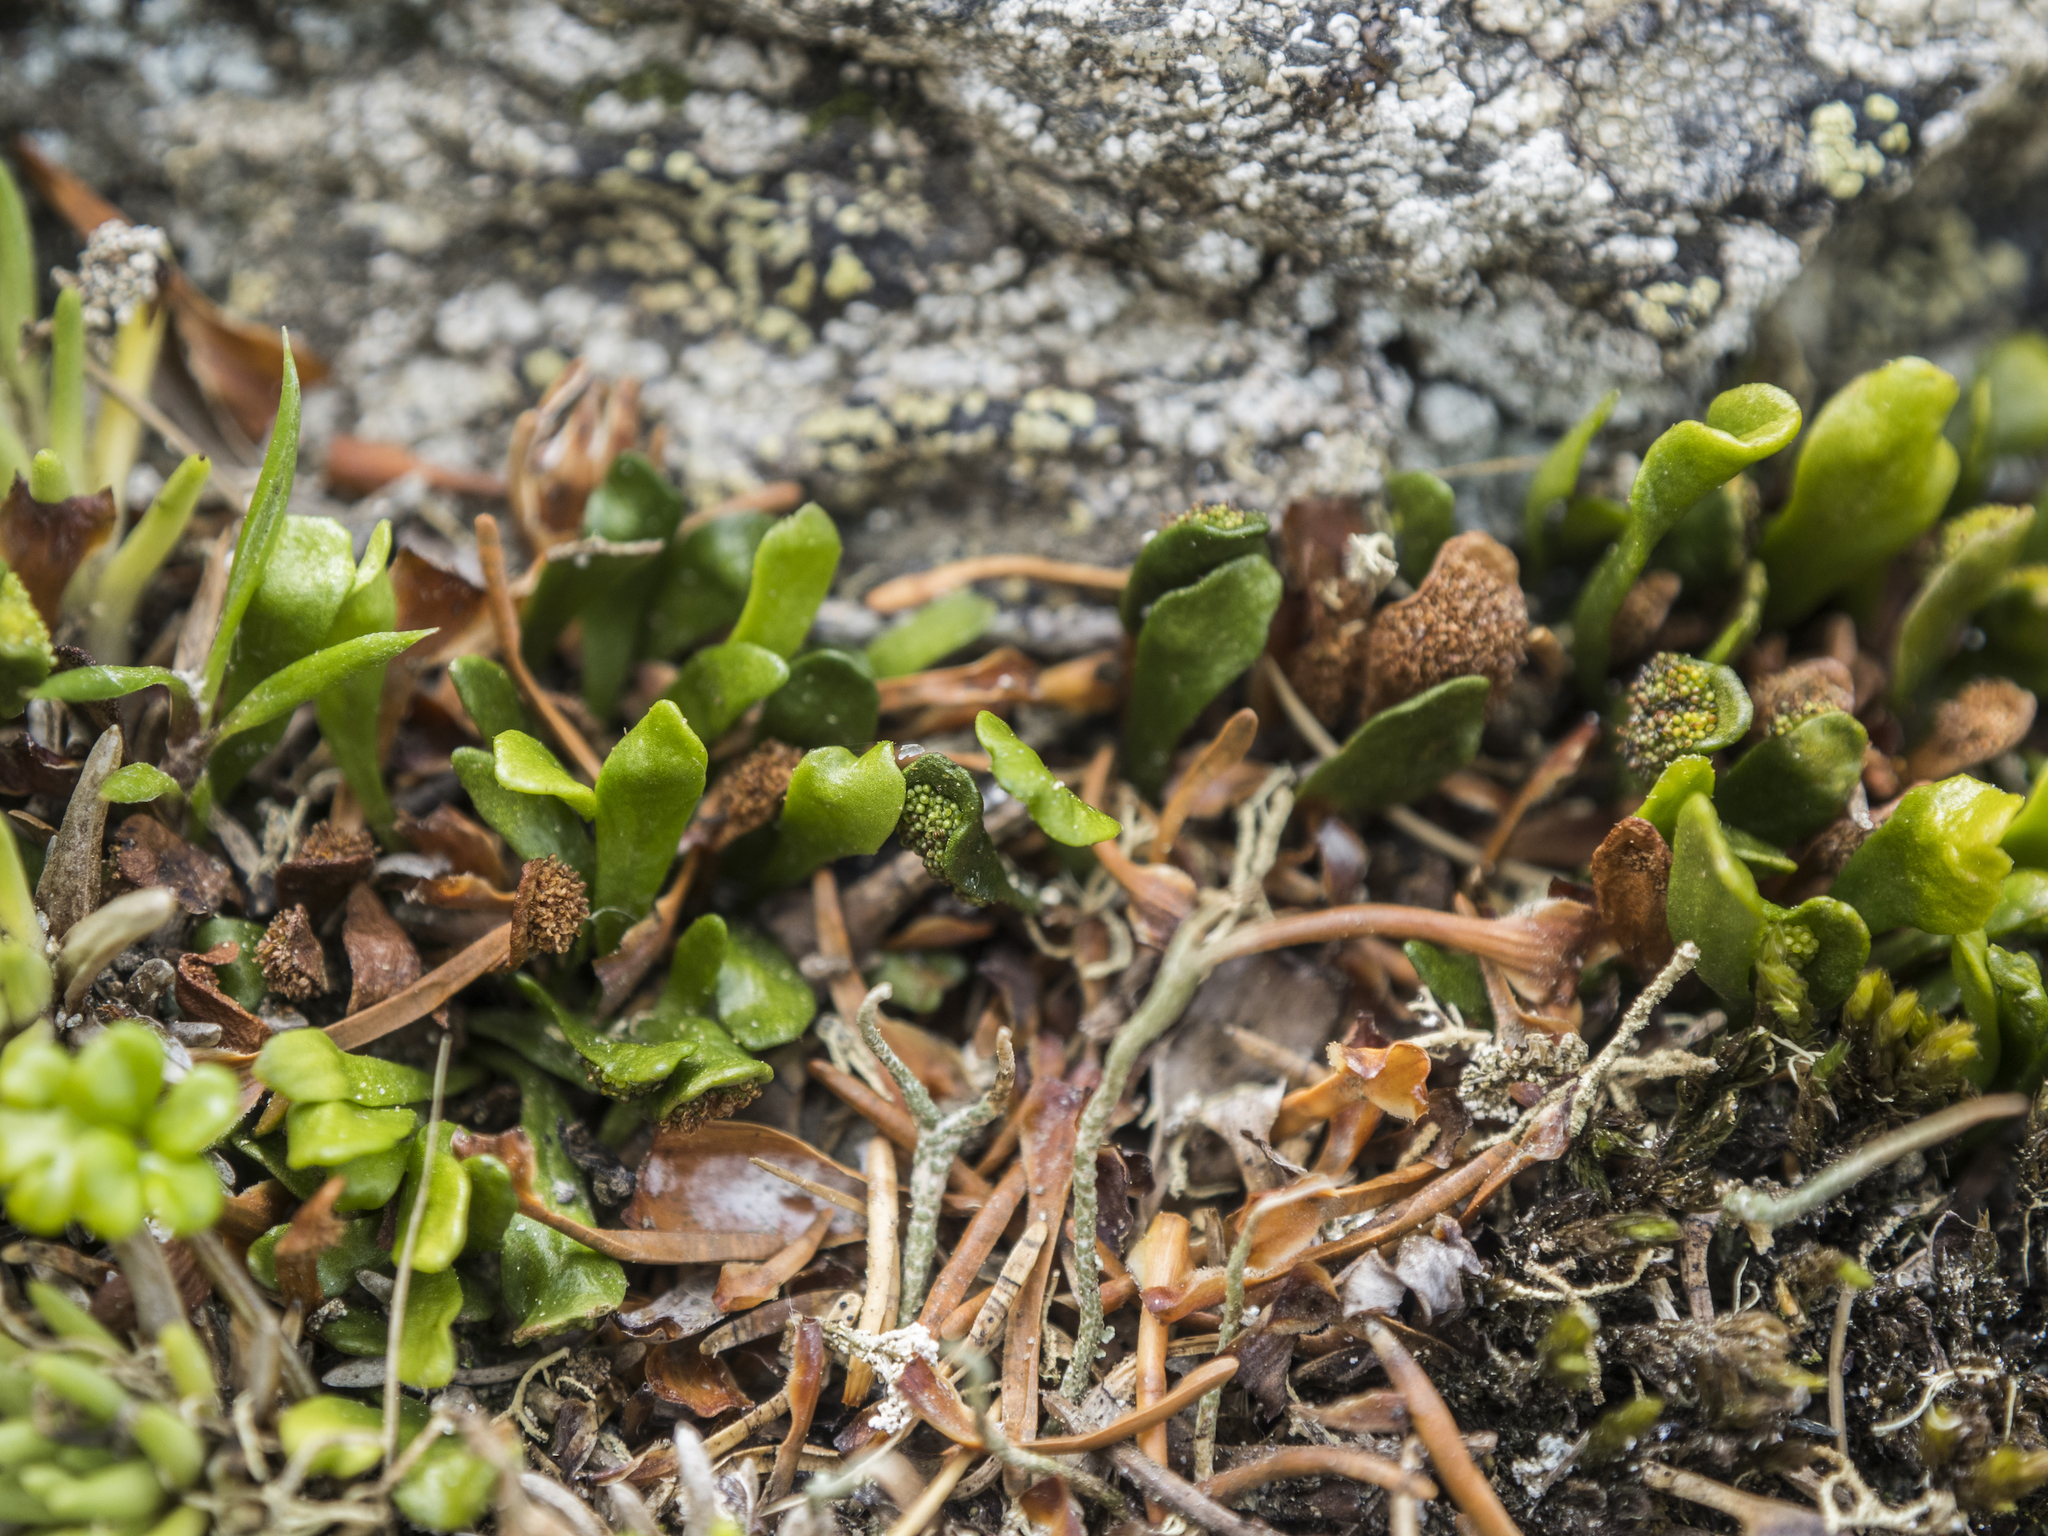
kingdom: Plantae
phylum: Tracheophyta
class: Polypodiopsida
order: Polypodiales
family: Polypodiaceae
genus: Notogrammitis
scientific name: Notogrammitis crassior
